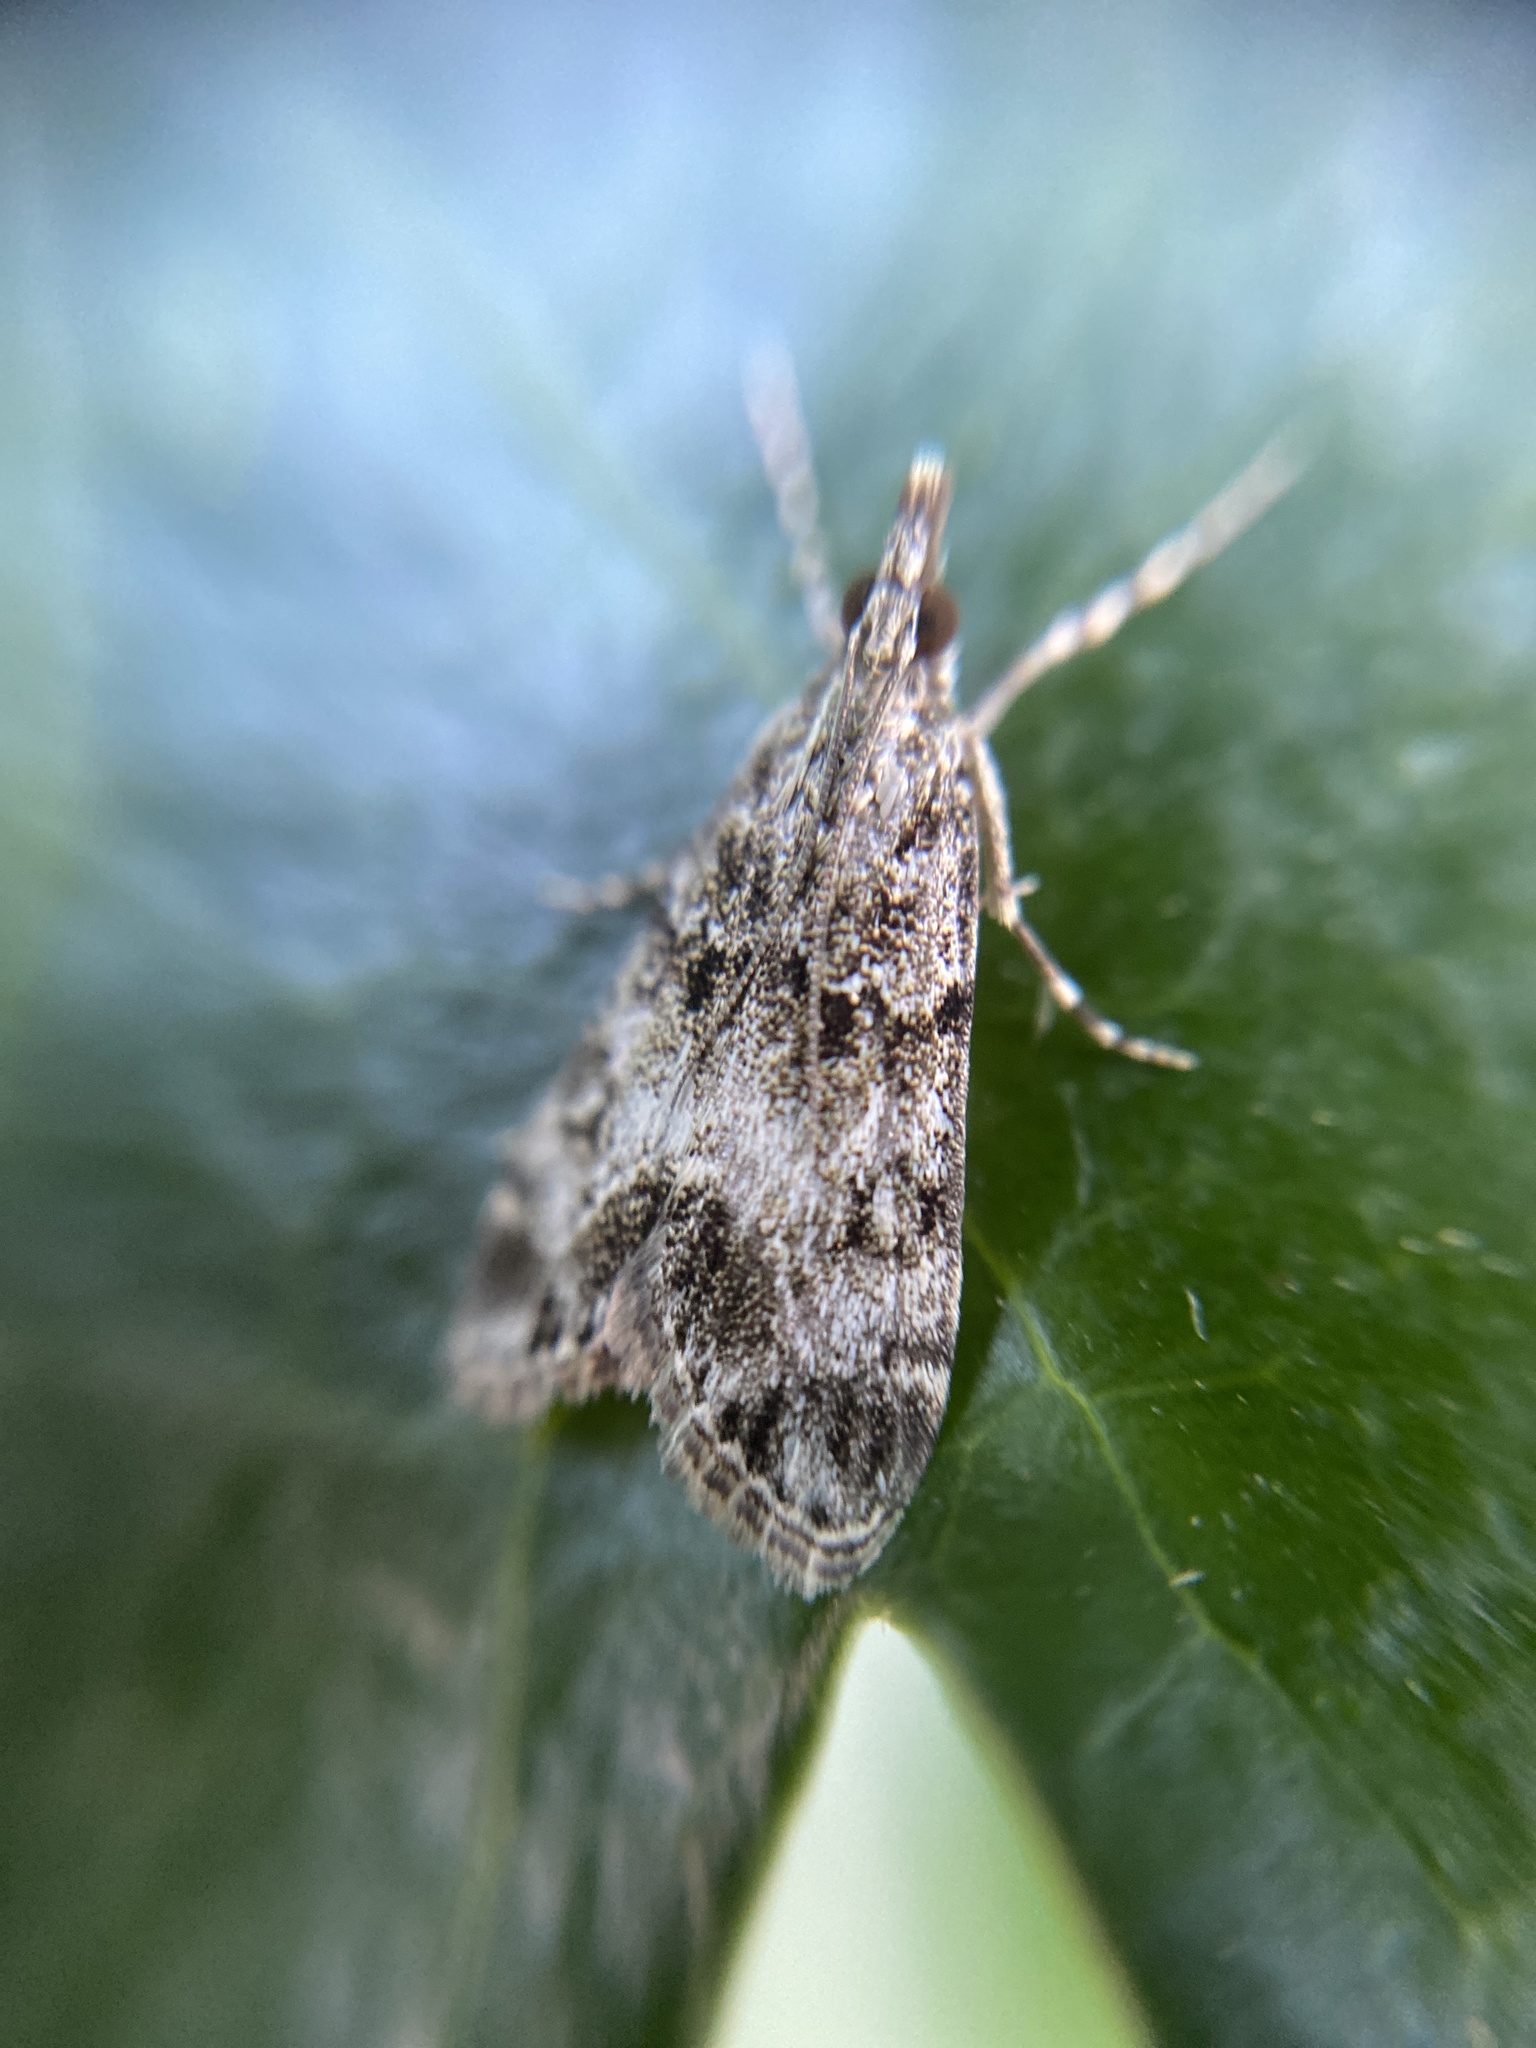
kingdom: Animalia
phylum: Arthropoda
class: Insecta
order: Lepidoptera
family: Crambidae
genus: Eudonia
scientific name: Eudonia mercurella
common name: Small grey
